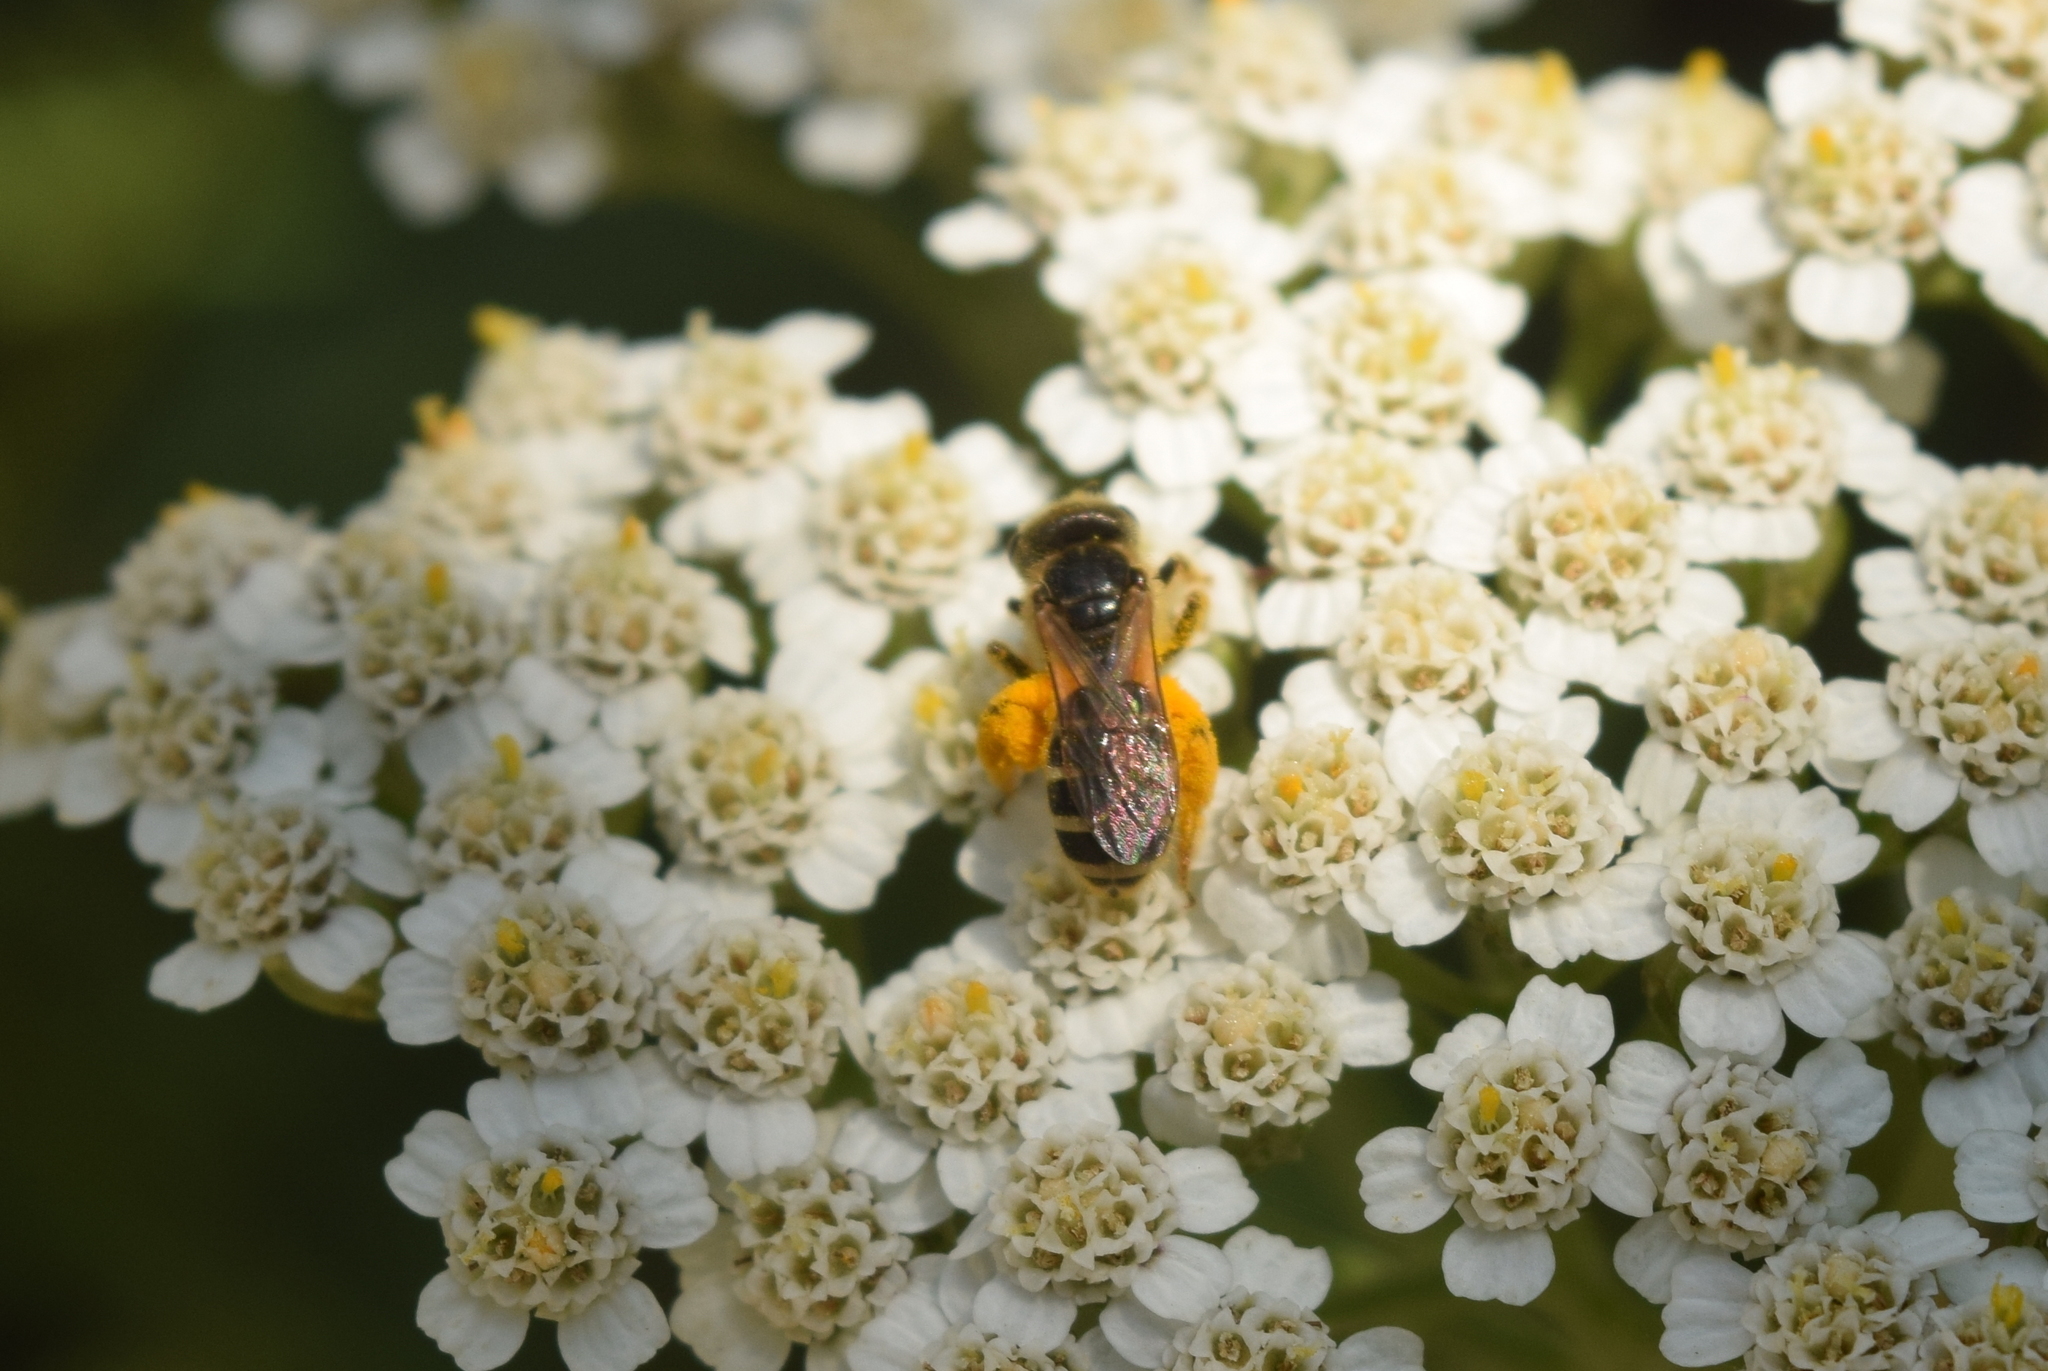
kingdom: Animalia
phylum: Arthropoda
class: Insecta
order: Hymenoptera
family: Halictidae
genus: Halictus
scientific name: Halictus ligatus
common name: Ligated furrow bee
